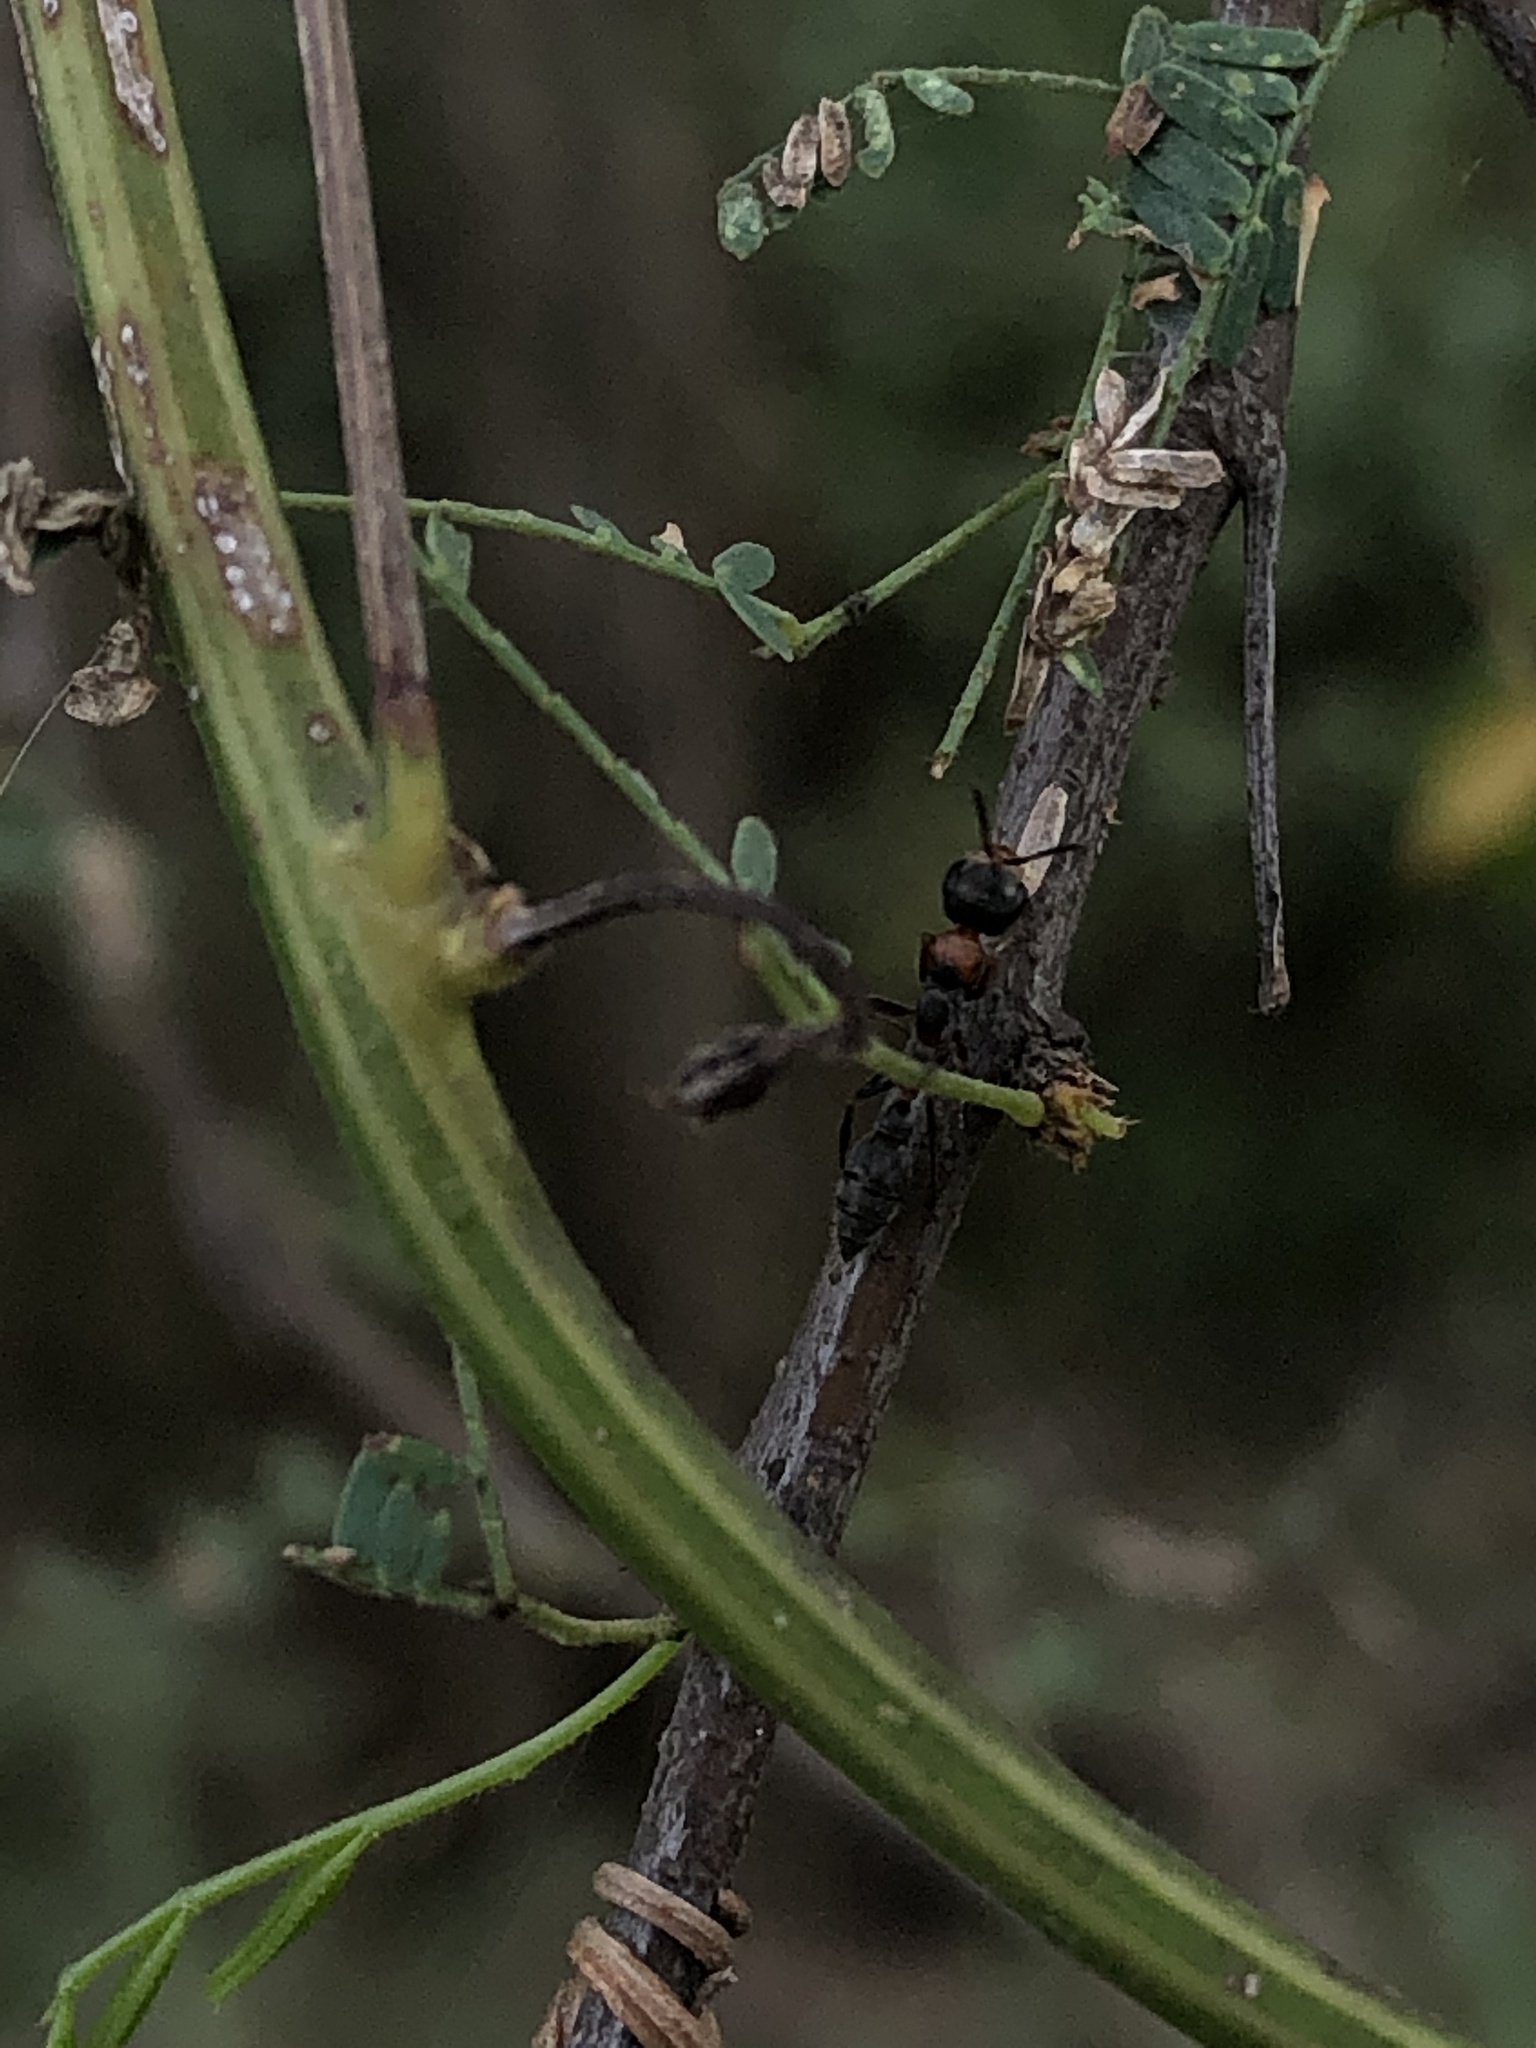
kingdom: Animalia
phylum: Arthropoda
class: Insecta
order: Hymenoptera
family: Formicidae
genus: Pseudomyrmex
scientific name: Pseudomyrmex gracilis
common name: Graceful twig ant
